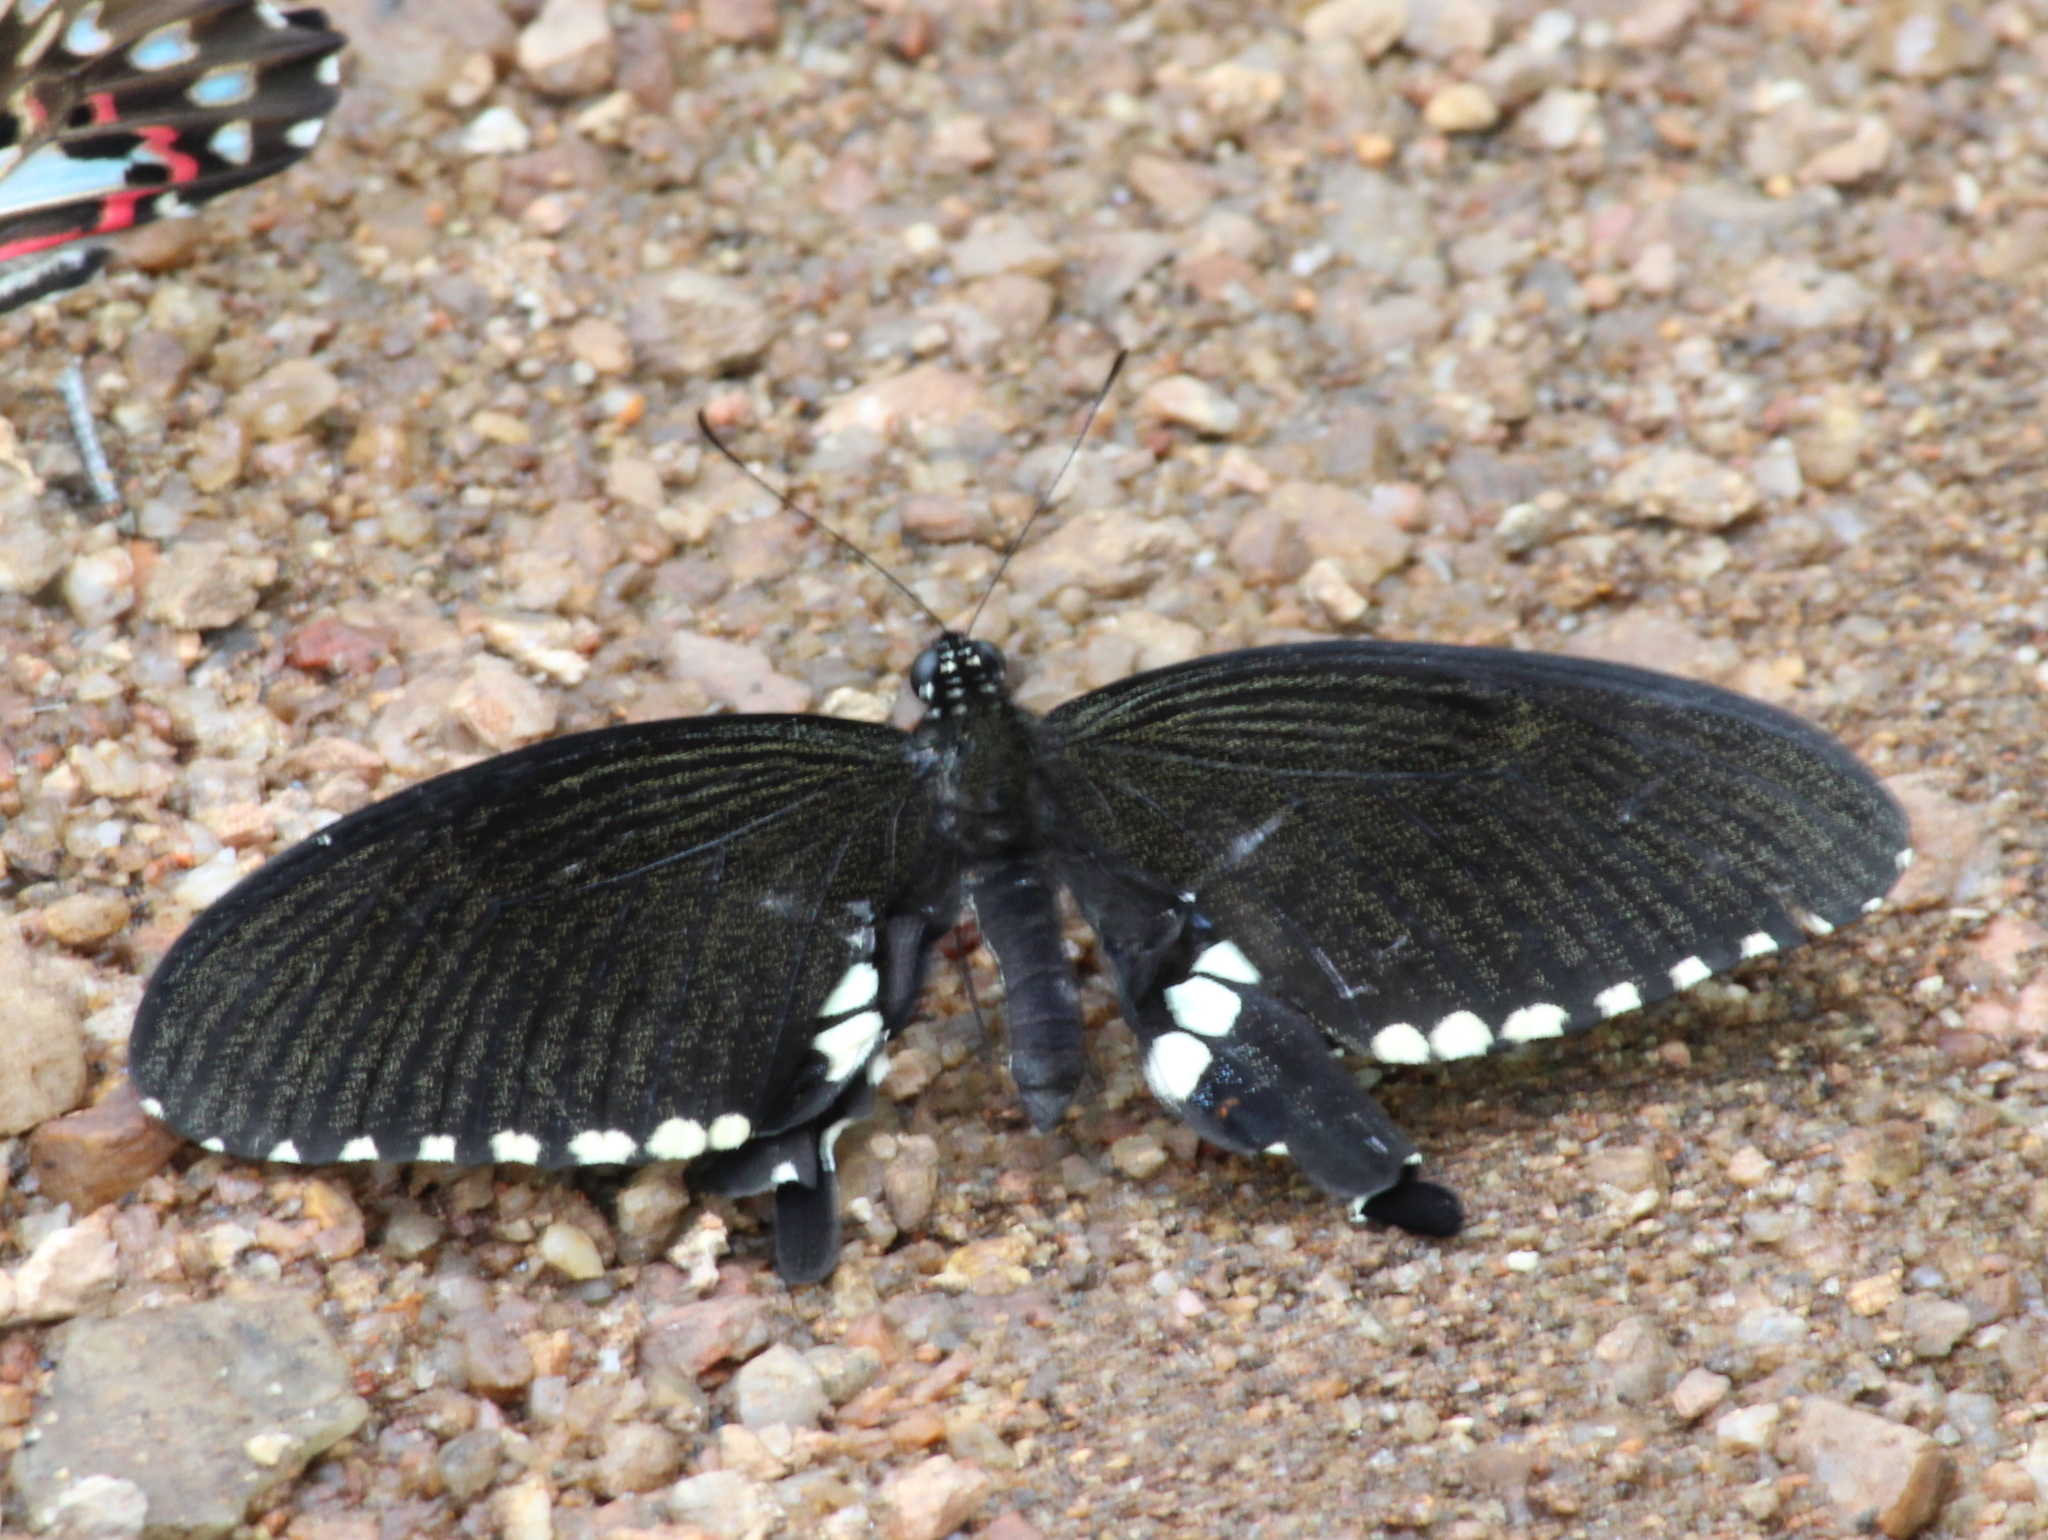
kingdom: Animalia
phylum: Arthropoda
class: Insecta
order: Lepidoptera
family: Papilionidae
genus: Papilio
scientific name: Papilio polytes
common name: Common mormon
